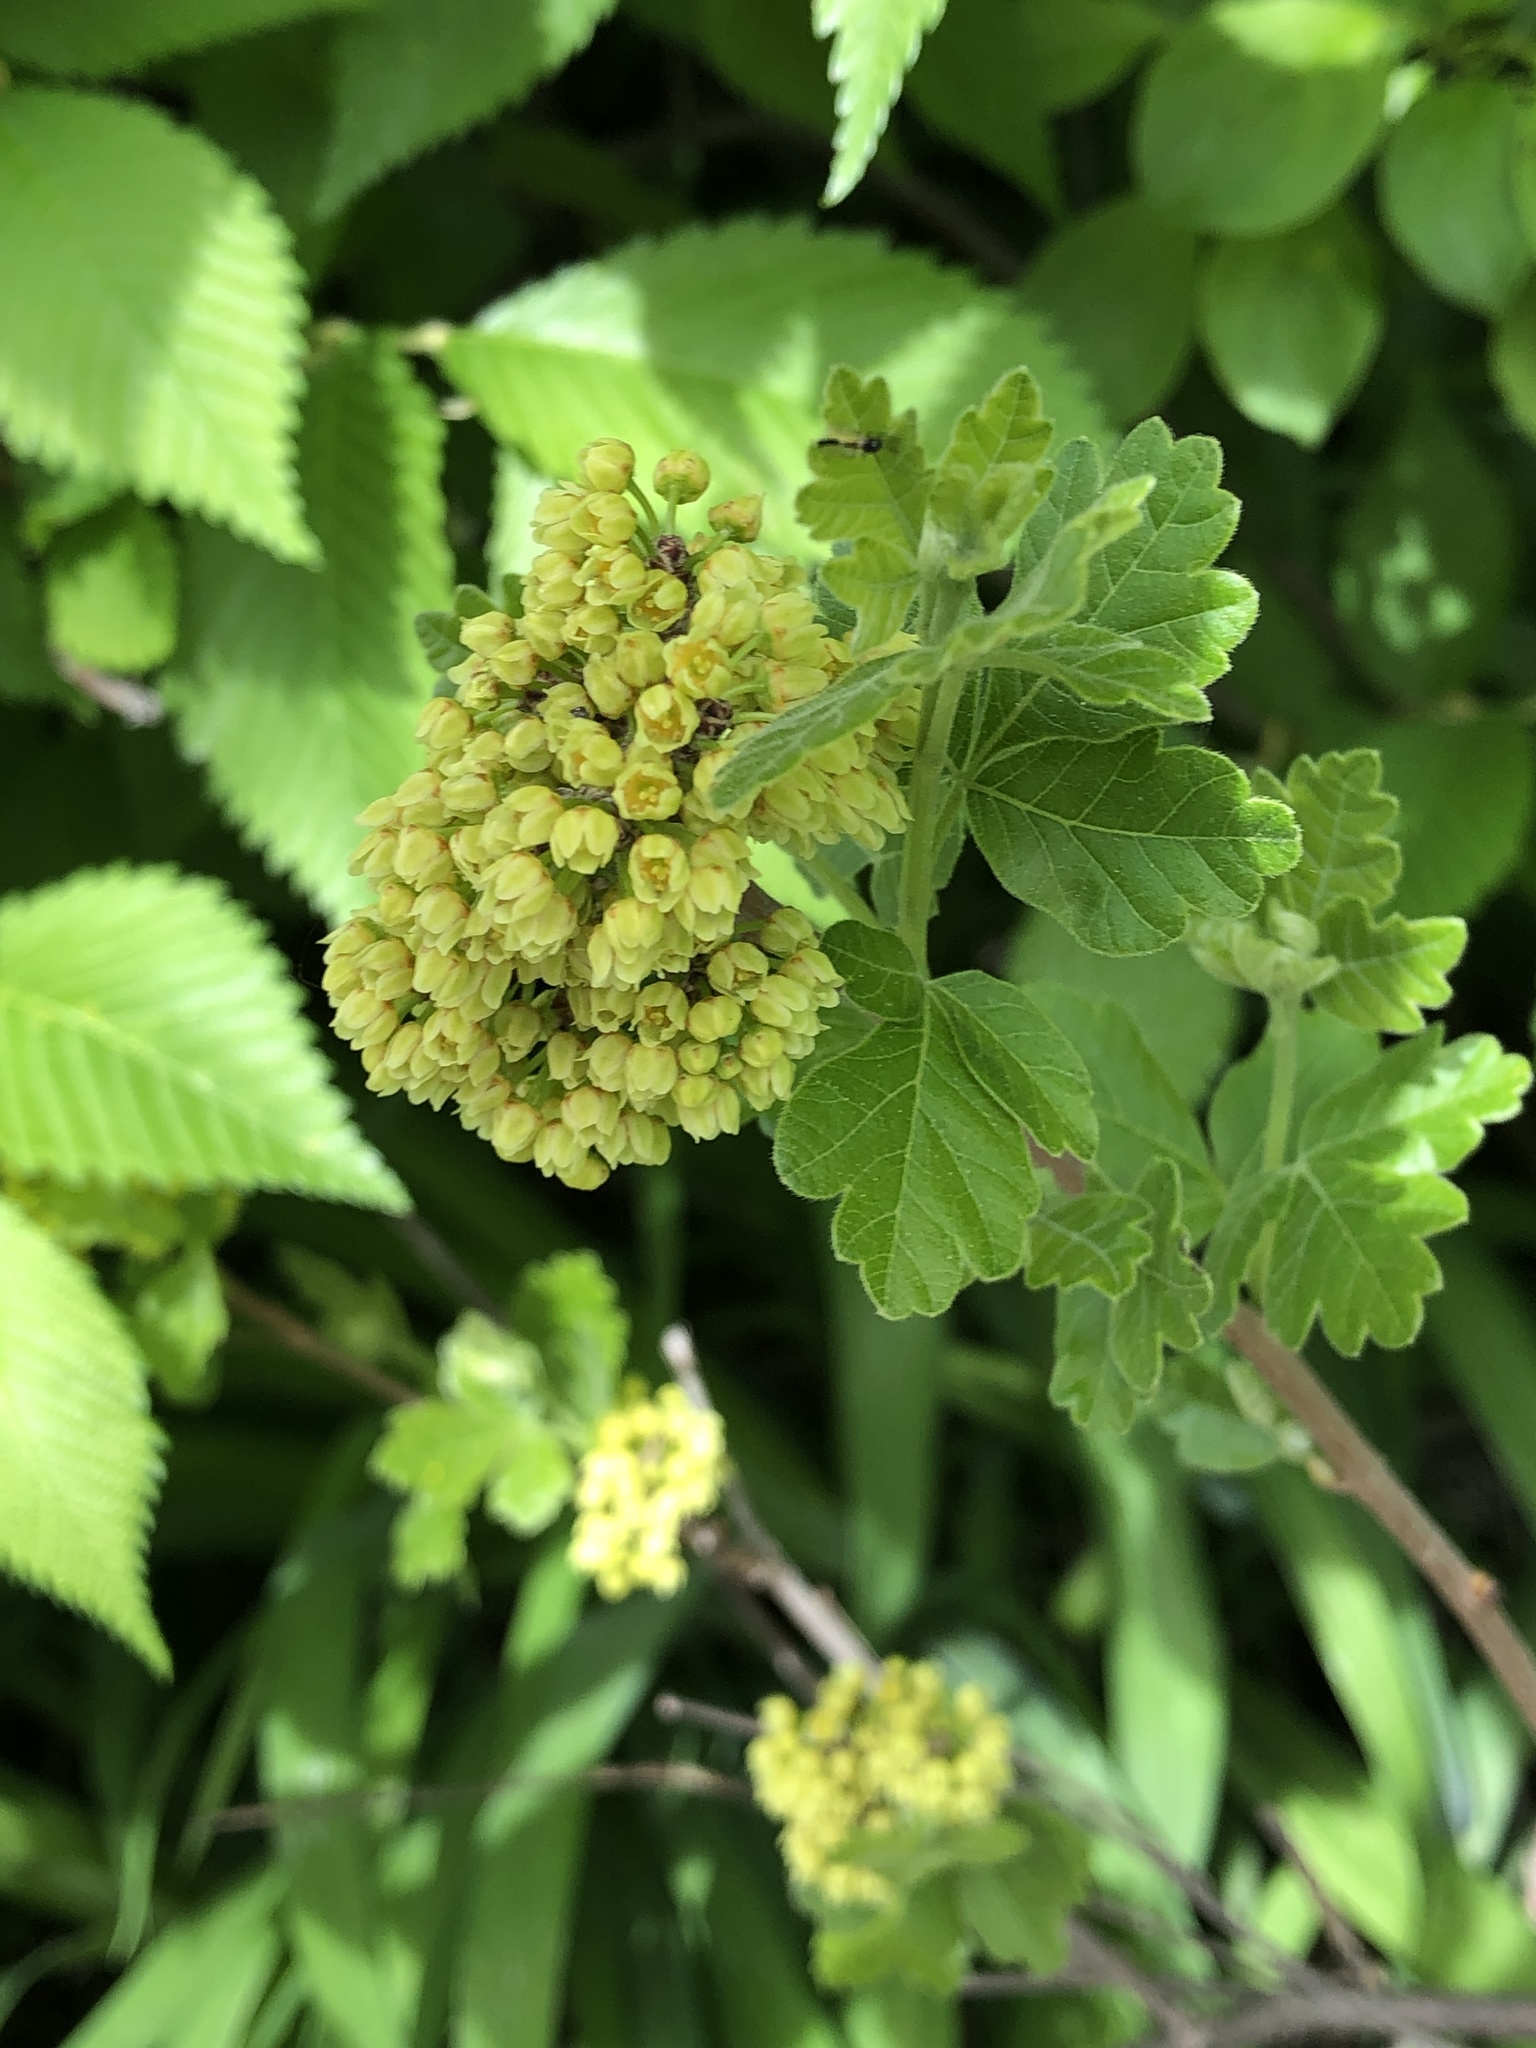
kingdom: Plantae
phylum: Tracheophyta
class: Magnoliopsida
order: Sapindales
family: Anacardiaceae
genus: Rhus
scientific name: Rhus aromatica
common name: Aromatic sumac
